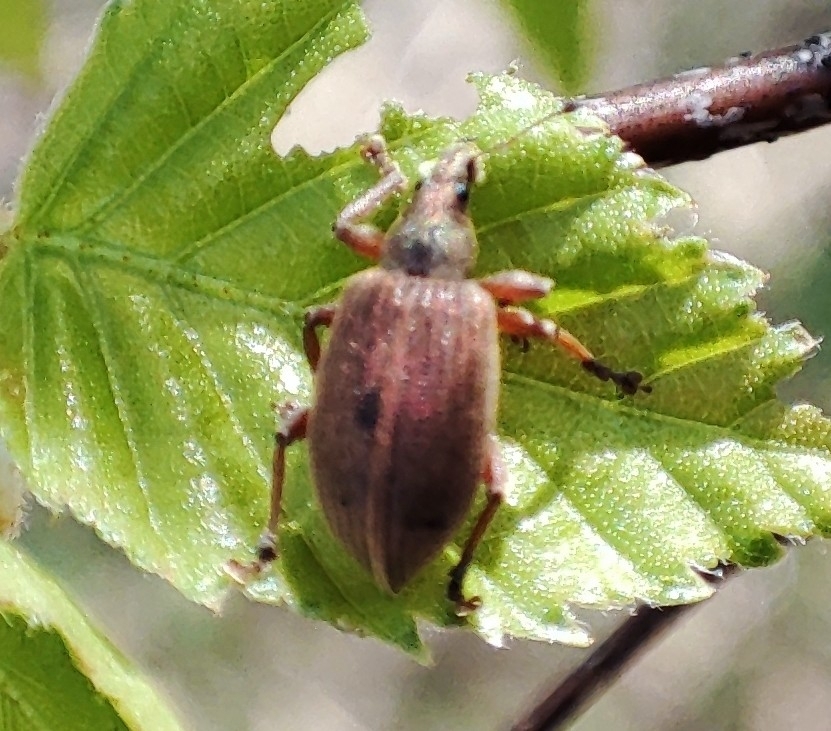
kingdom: Animalia
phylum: Arthropoda
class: Insecta
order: Coleoptera
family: Curculionidae
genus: Polydrusus
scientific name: Polydrusus mollis
